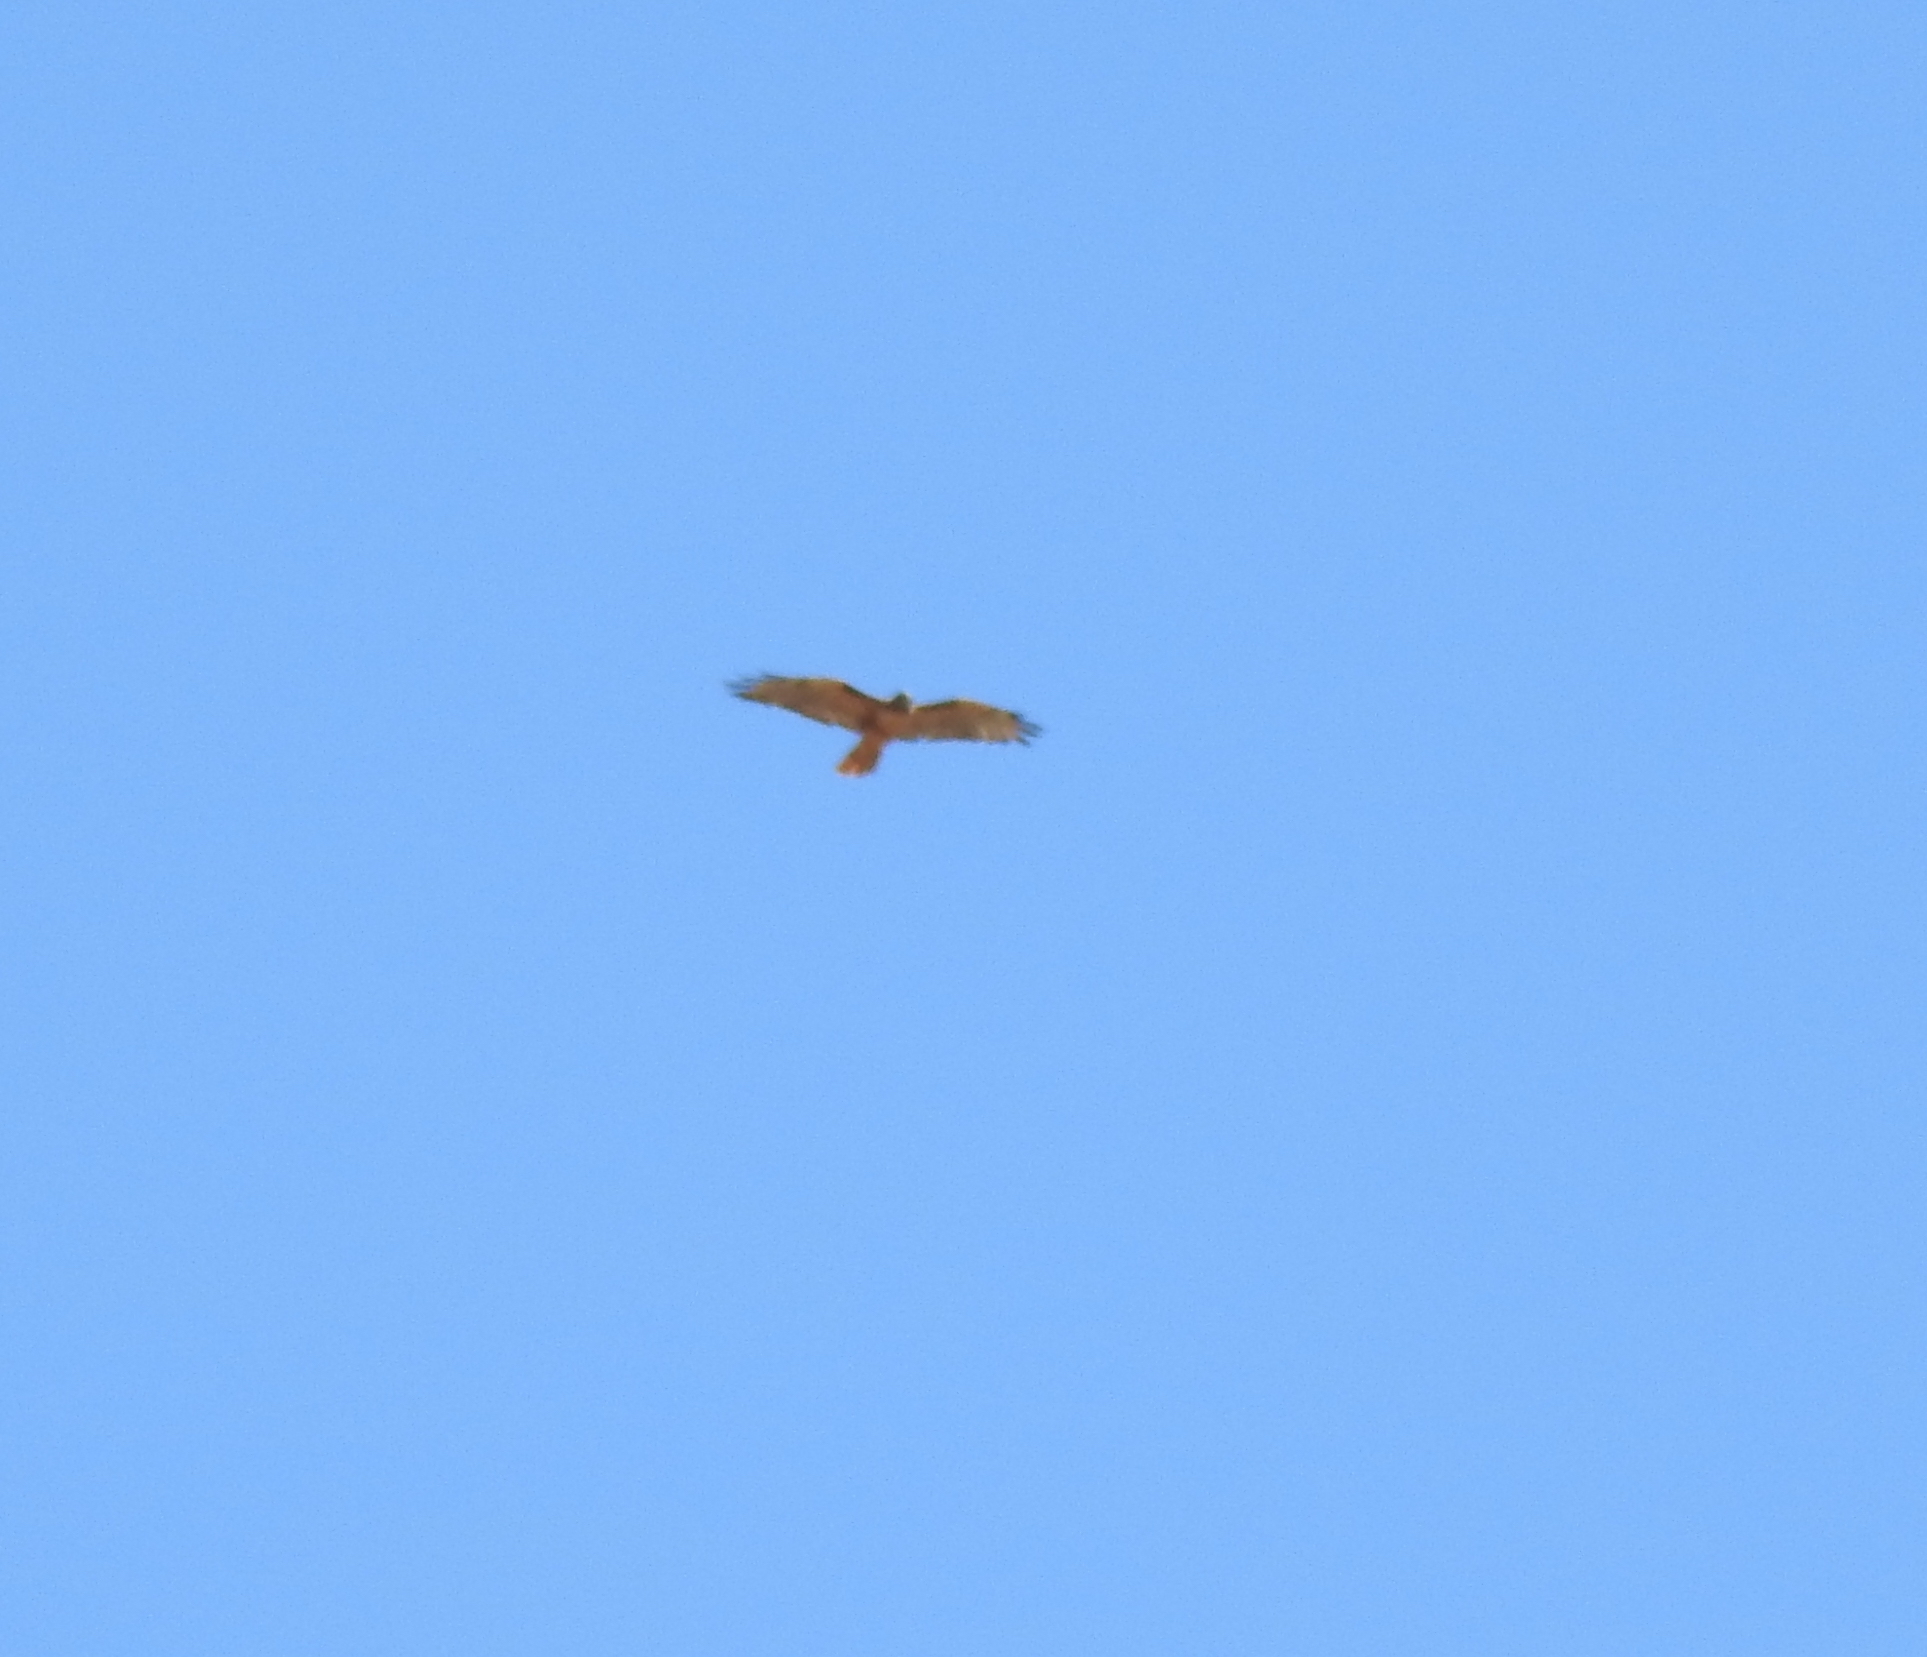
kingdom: Animalia
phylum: Chordata
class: Aves
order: Accipitriformes
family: Accipitridae
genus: Buteo
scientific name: Buteo jamaicensis
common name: Red-tailed hawk
